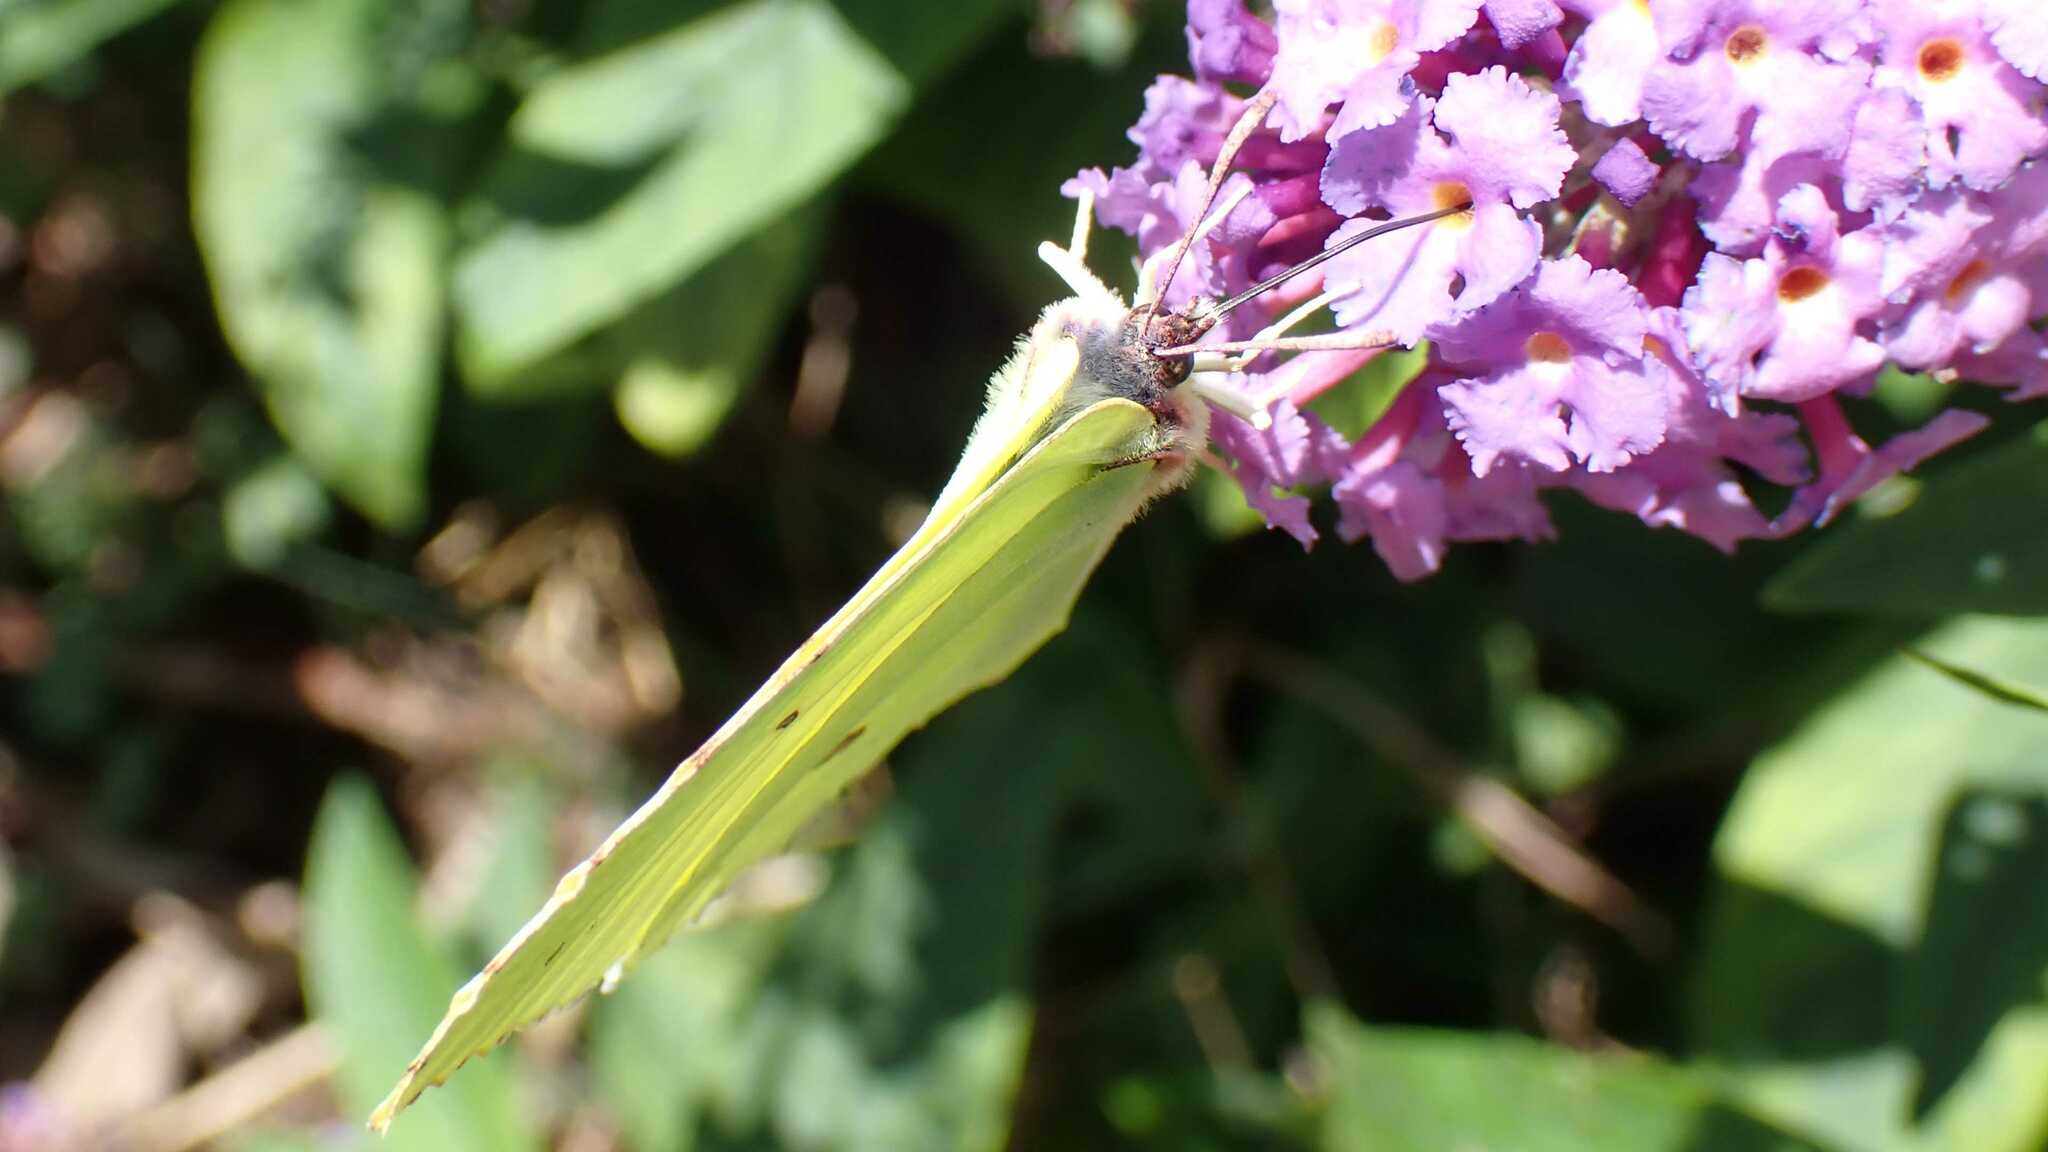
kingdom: Animalia
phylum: Arthropoda
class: Insecta
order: Lepidoptera
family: Pieridae
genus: Gonepteryx
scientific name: Gonepteryx rhamni
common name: Brimstone
